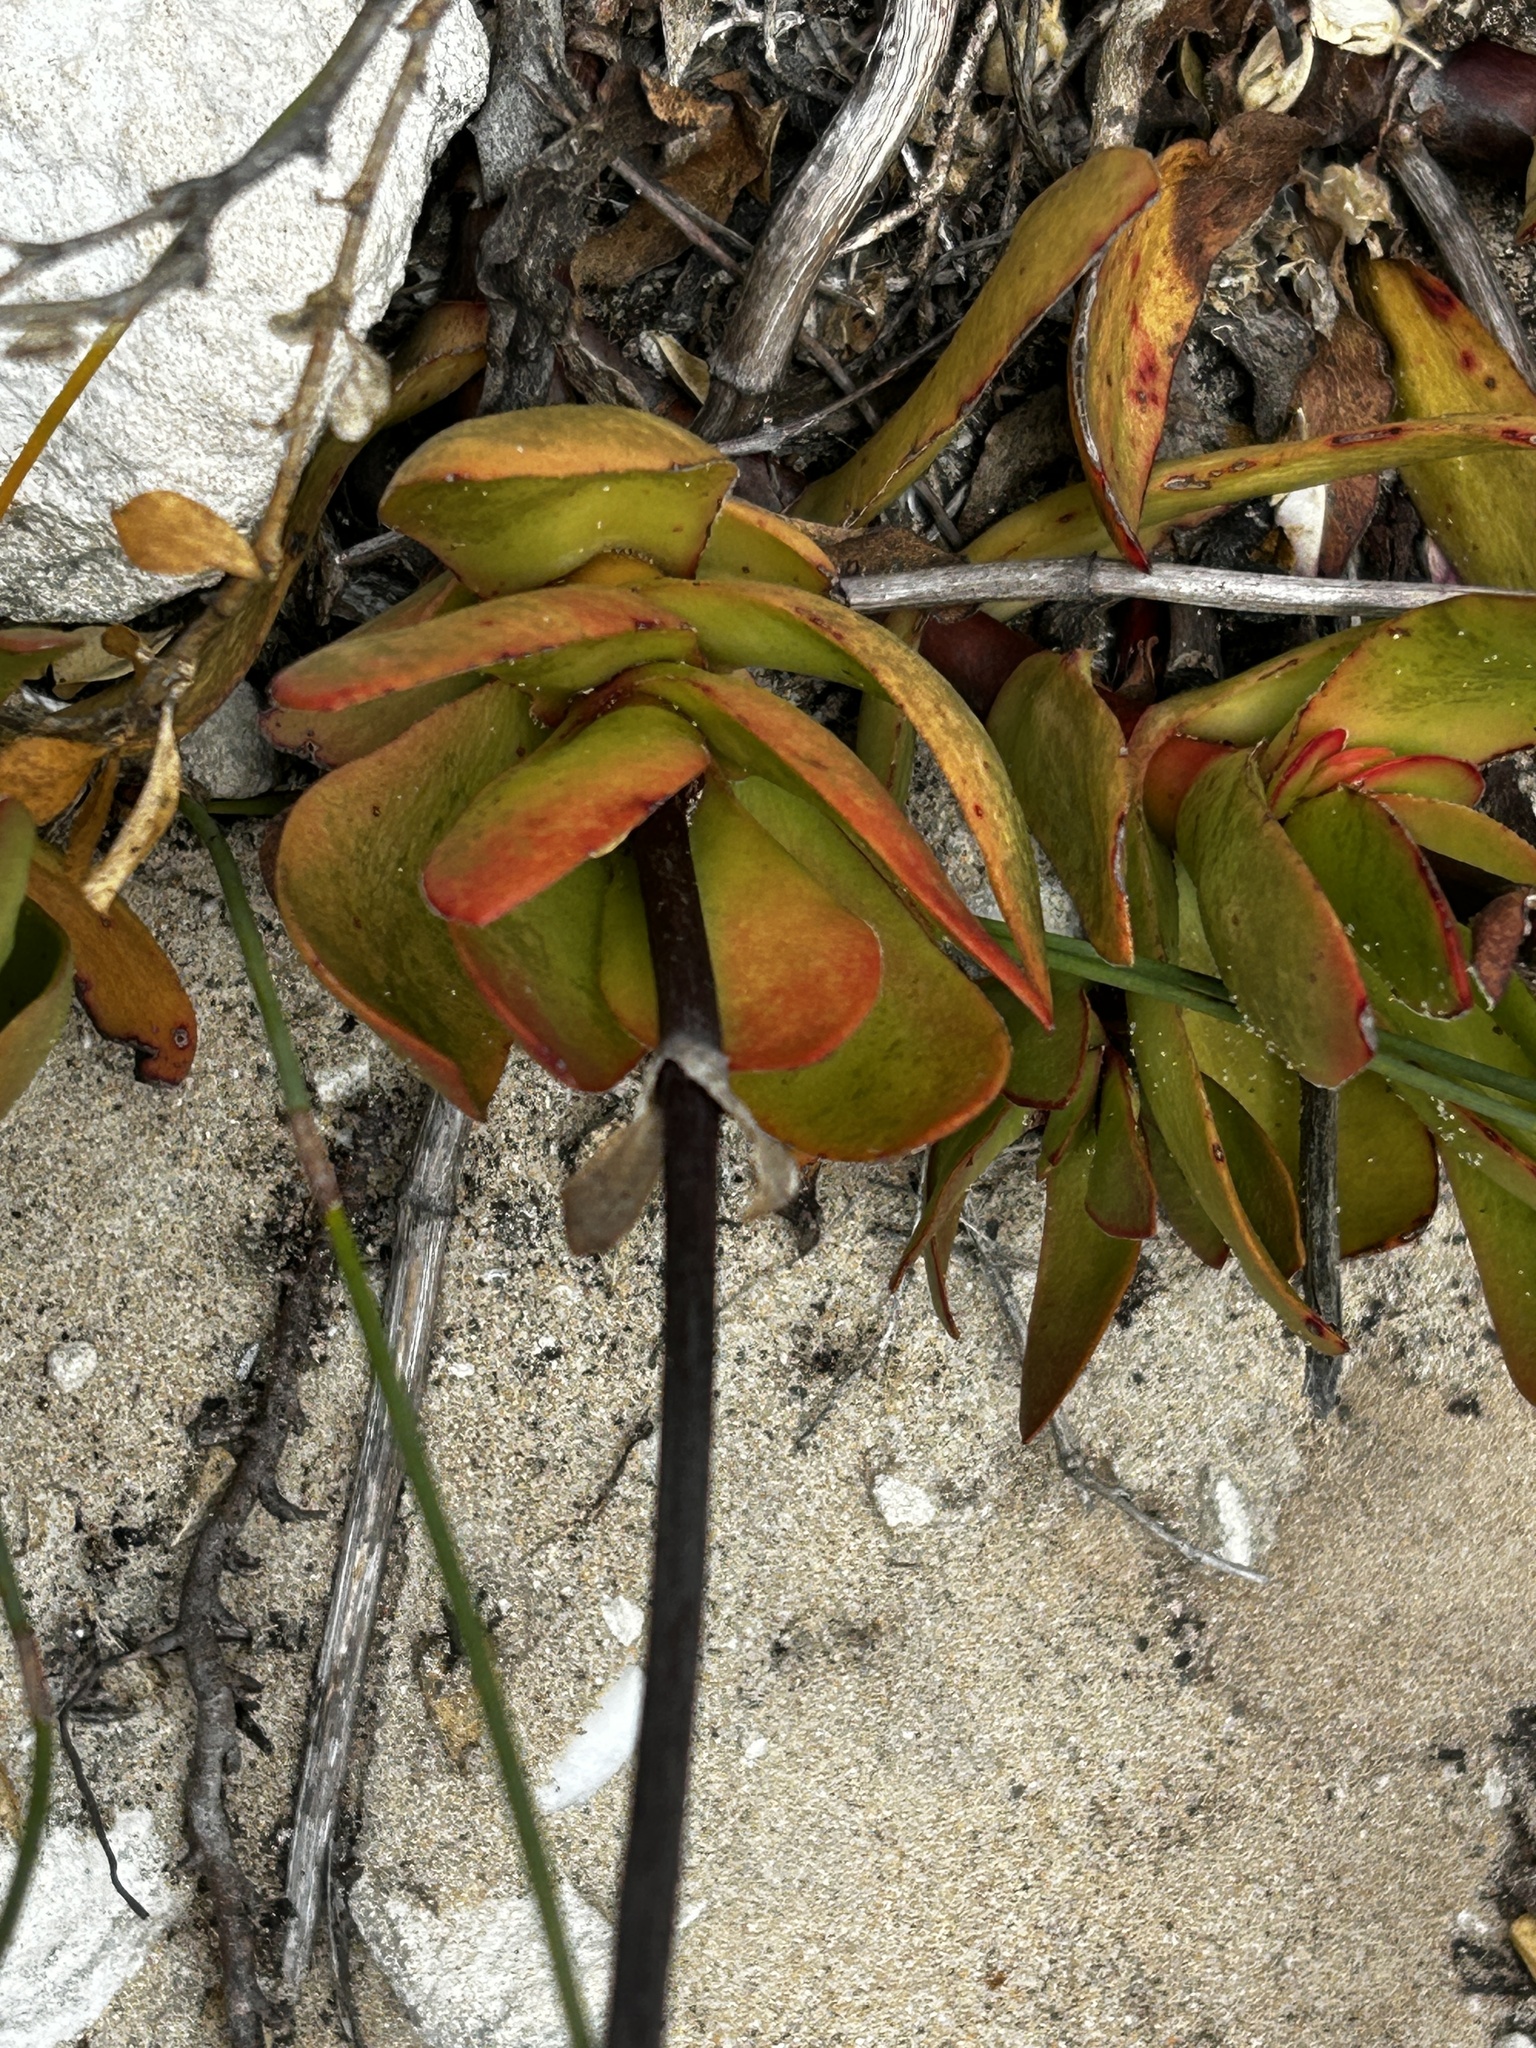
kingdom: Plantae
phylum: Tracheophyta
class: Magnoliopsida
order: Saxifragales
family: Crassulaceae
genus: Crassula
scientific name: Crassula pubescens
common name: Jersey pigmyweed
